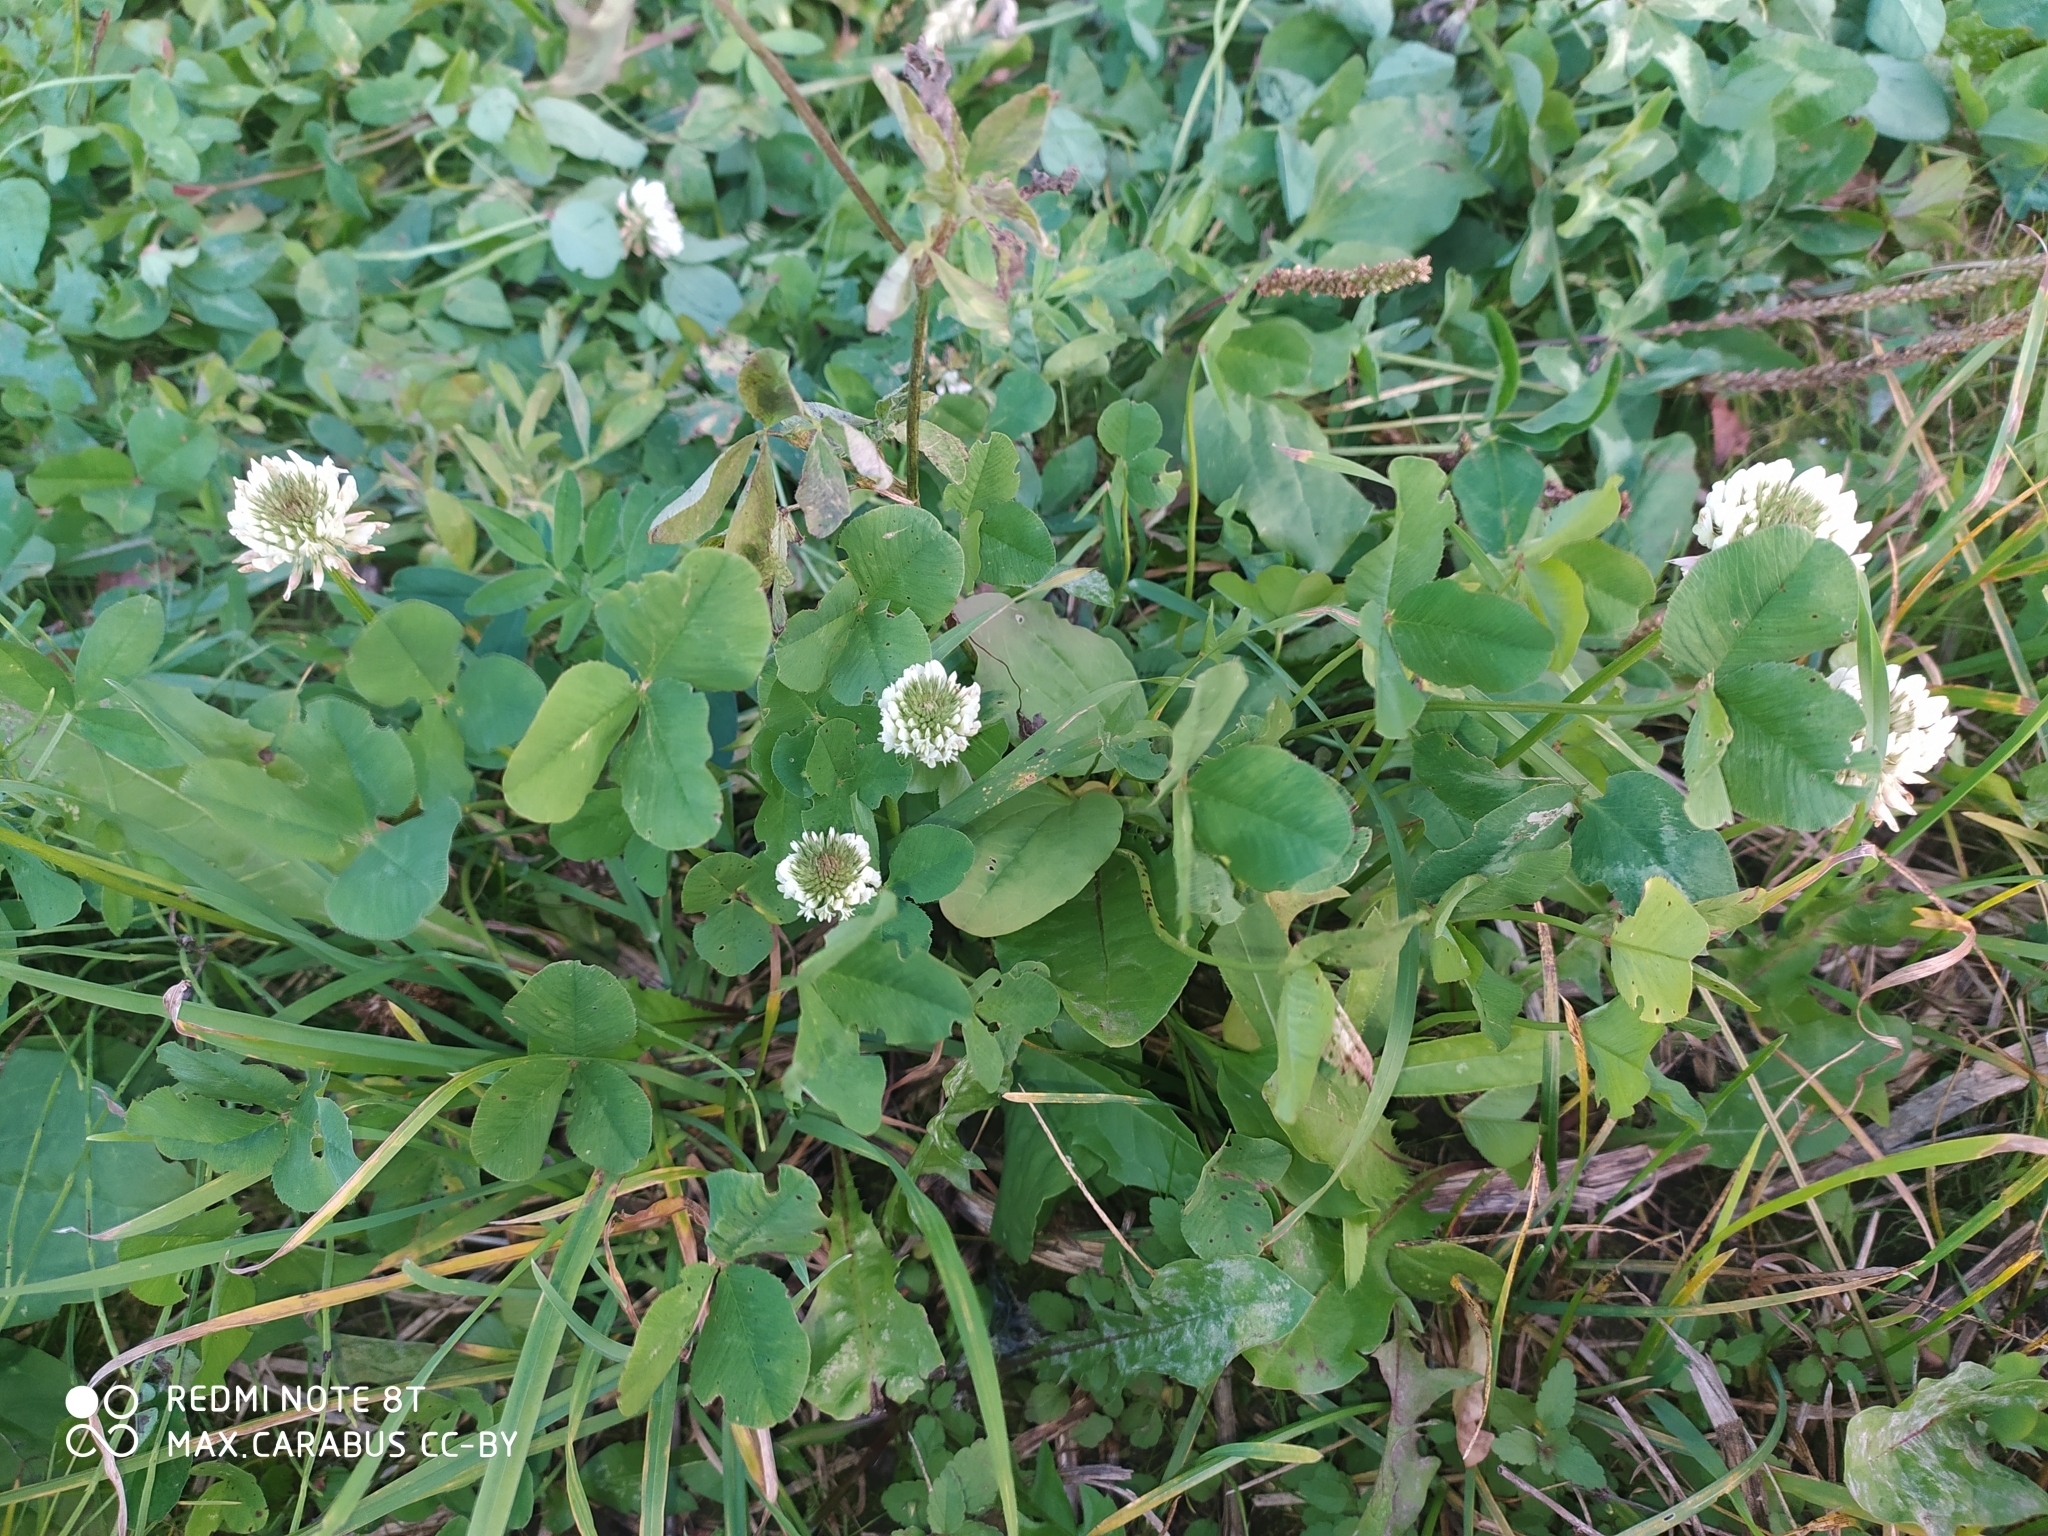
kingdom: Plantae
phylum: Tracheophyta
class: Magnoliopsida
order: Fabales
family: Fabaceae
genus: Trifolium
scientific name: Trifolium repens
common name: White clover
